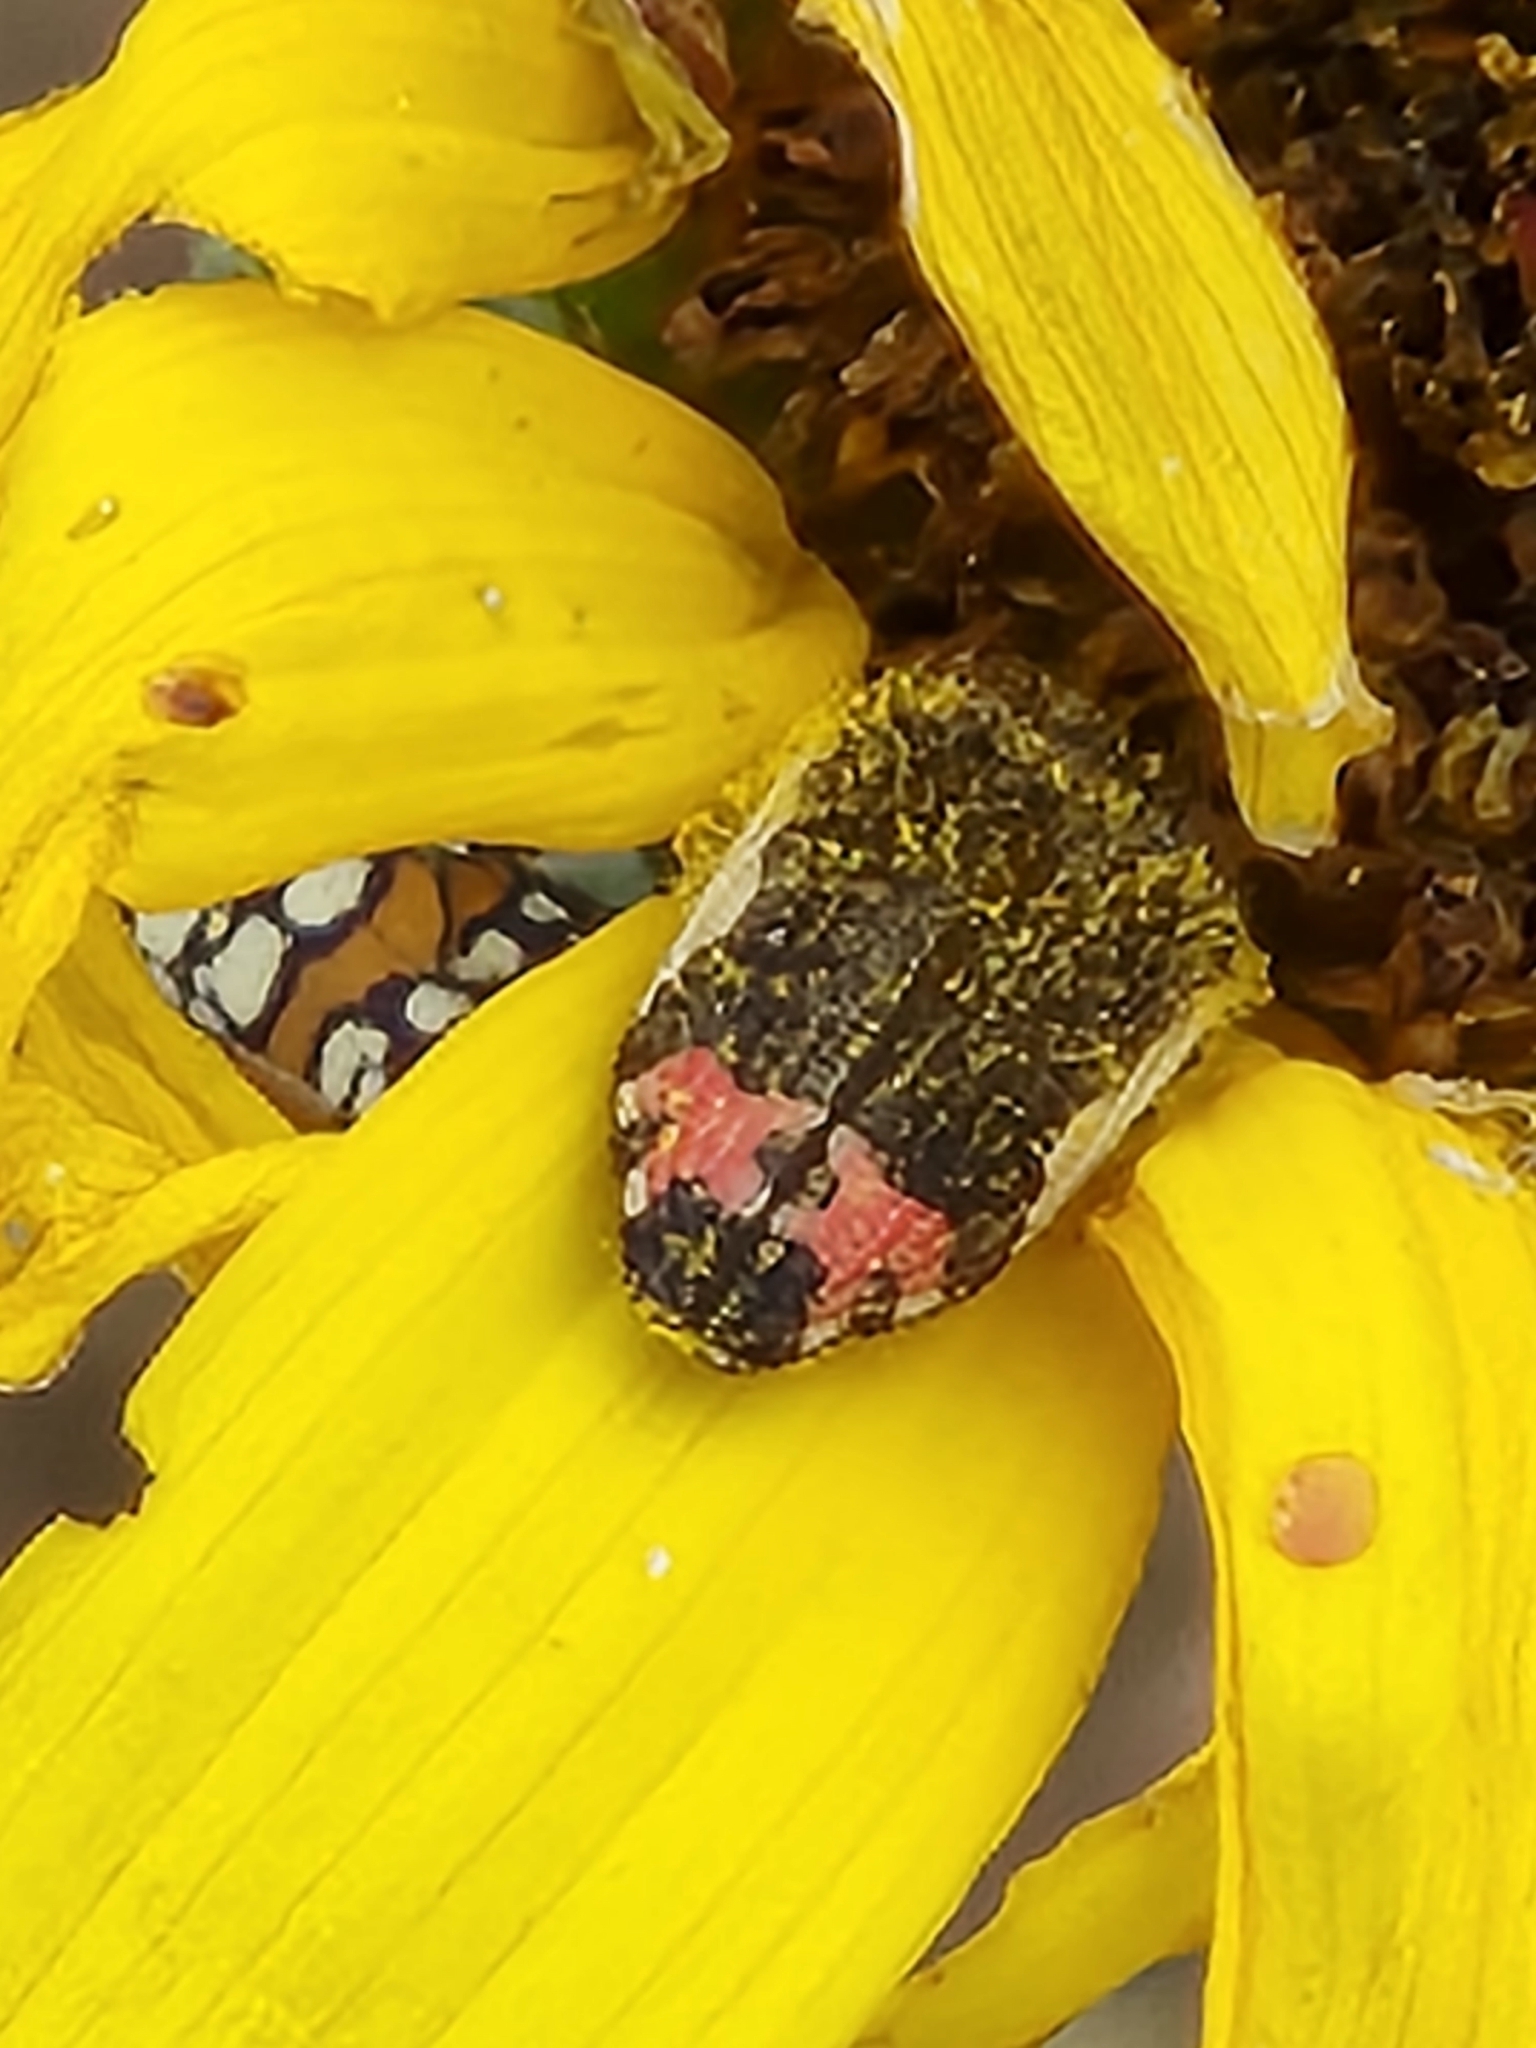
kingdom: Animalia
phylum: Arthropoda
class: Insecta
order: Coleoptera
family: Buprestidae
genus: Acmaeodera
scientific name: Acmaeodera flavomarginata
